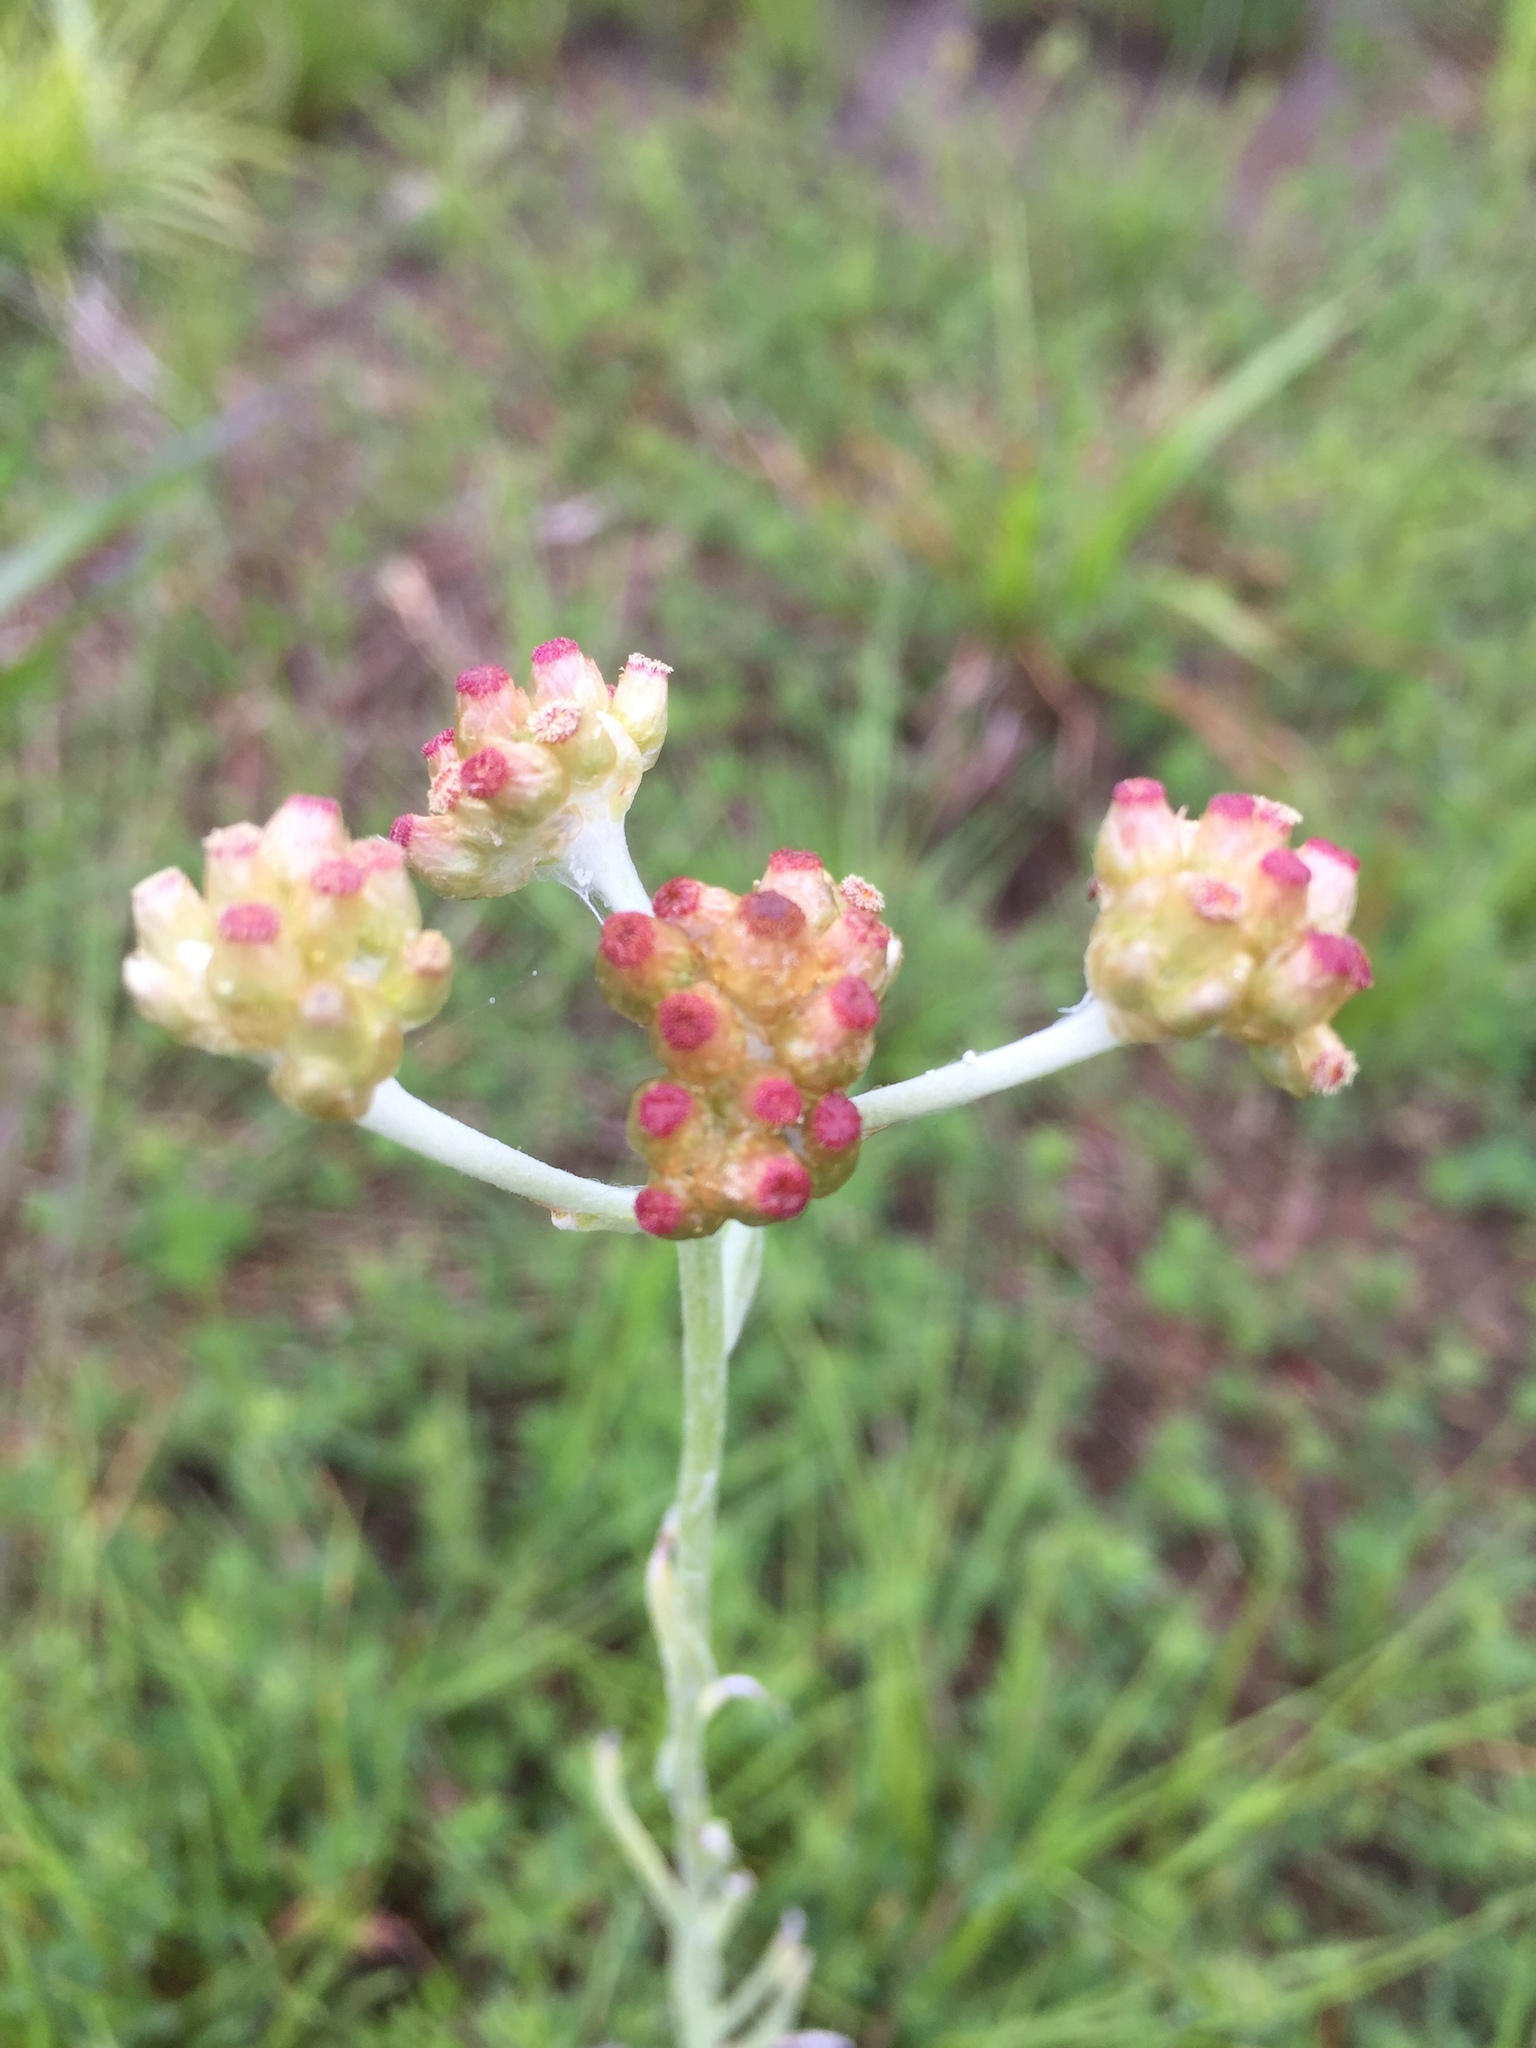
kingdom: Plantae
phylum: Tracheophyta
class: Magnoliopsida
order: Asterales
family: Asteraceae
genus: Helichrysum
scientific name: Helichrysum luteoalbum
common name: Daisy
